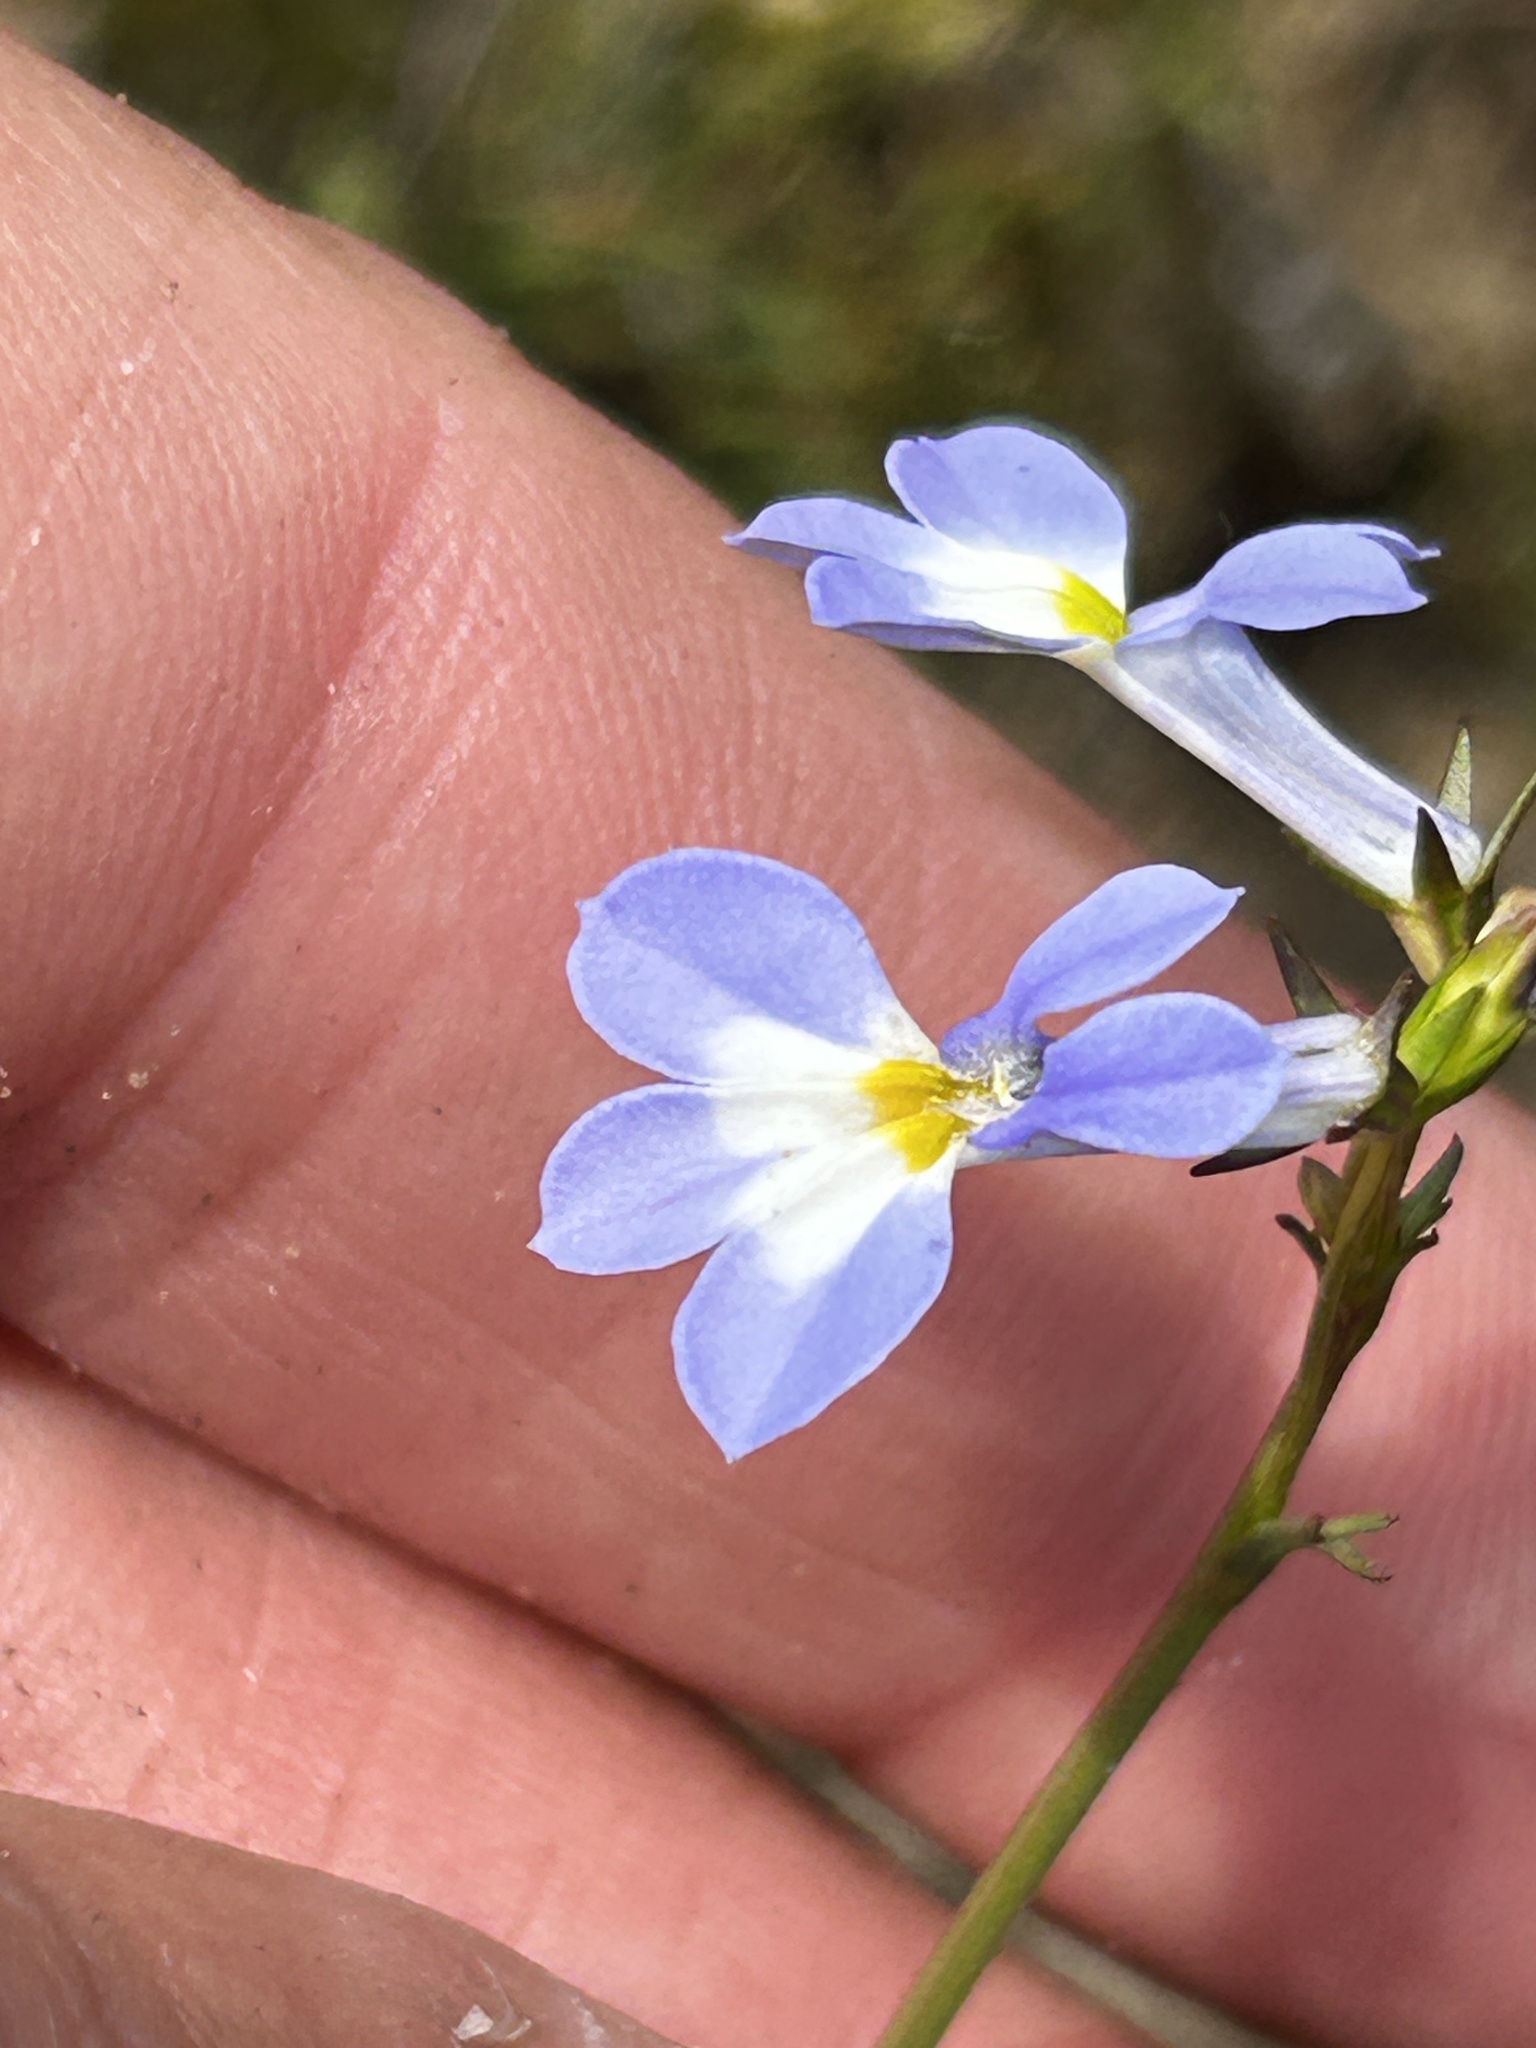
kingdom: Plantae
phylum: Tracheophyta
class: Magnoliopsida
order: Asterales
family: Campanulaceae
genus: Lobelia
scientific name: Lobelia valida
